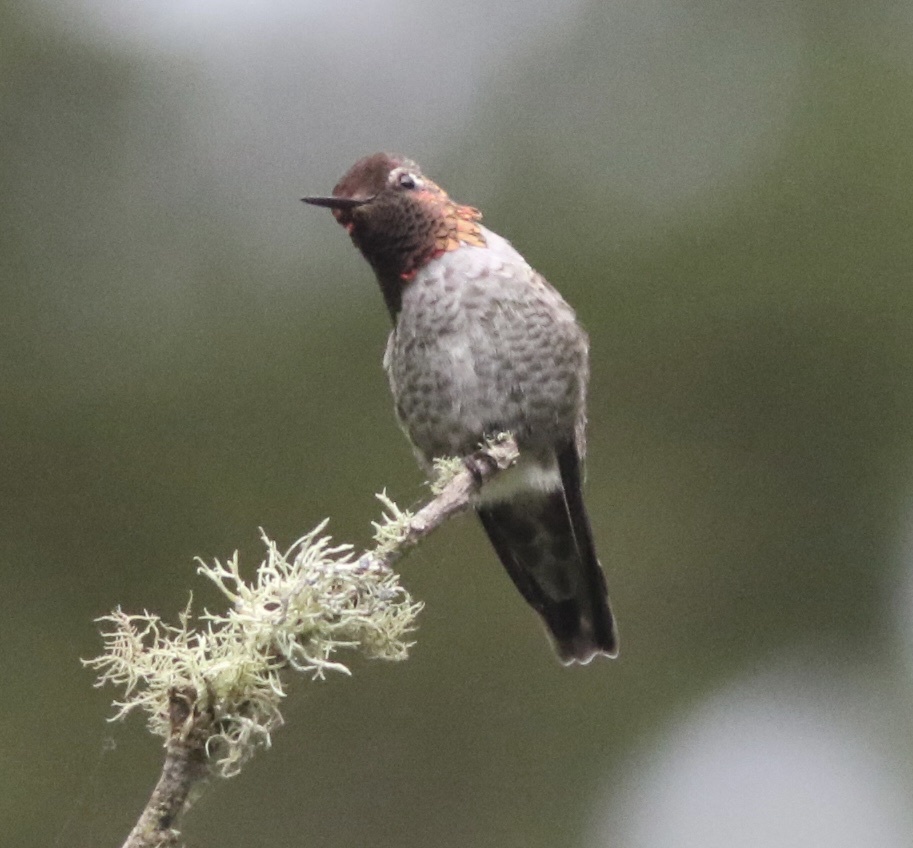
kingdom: Animalia
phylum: Chordata
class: Aves
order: Apodiformes
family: Trochilidae
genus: Calypte
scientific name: Calypte anna
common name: Anna's hummingbird
